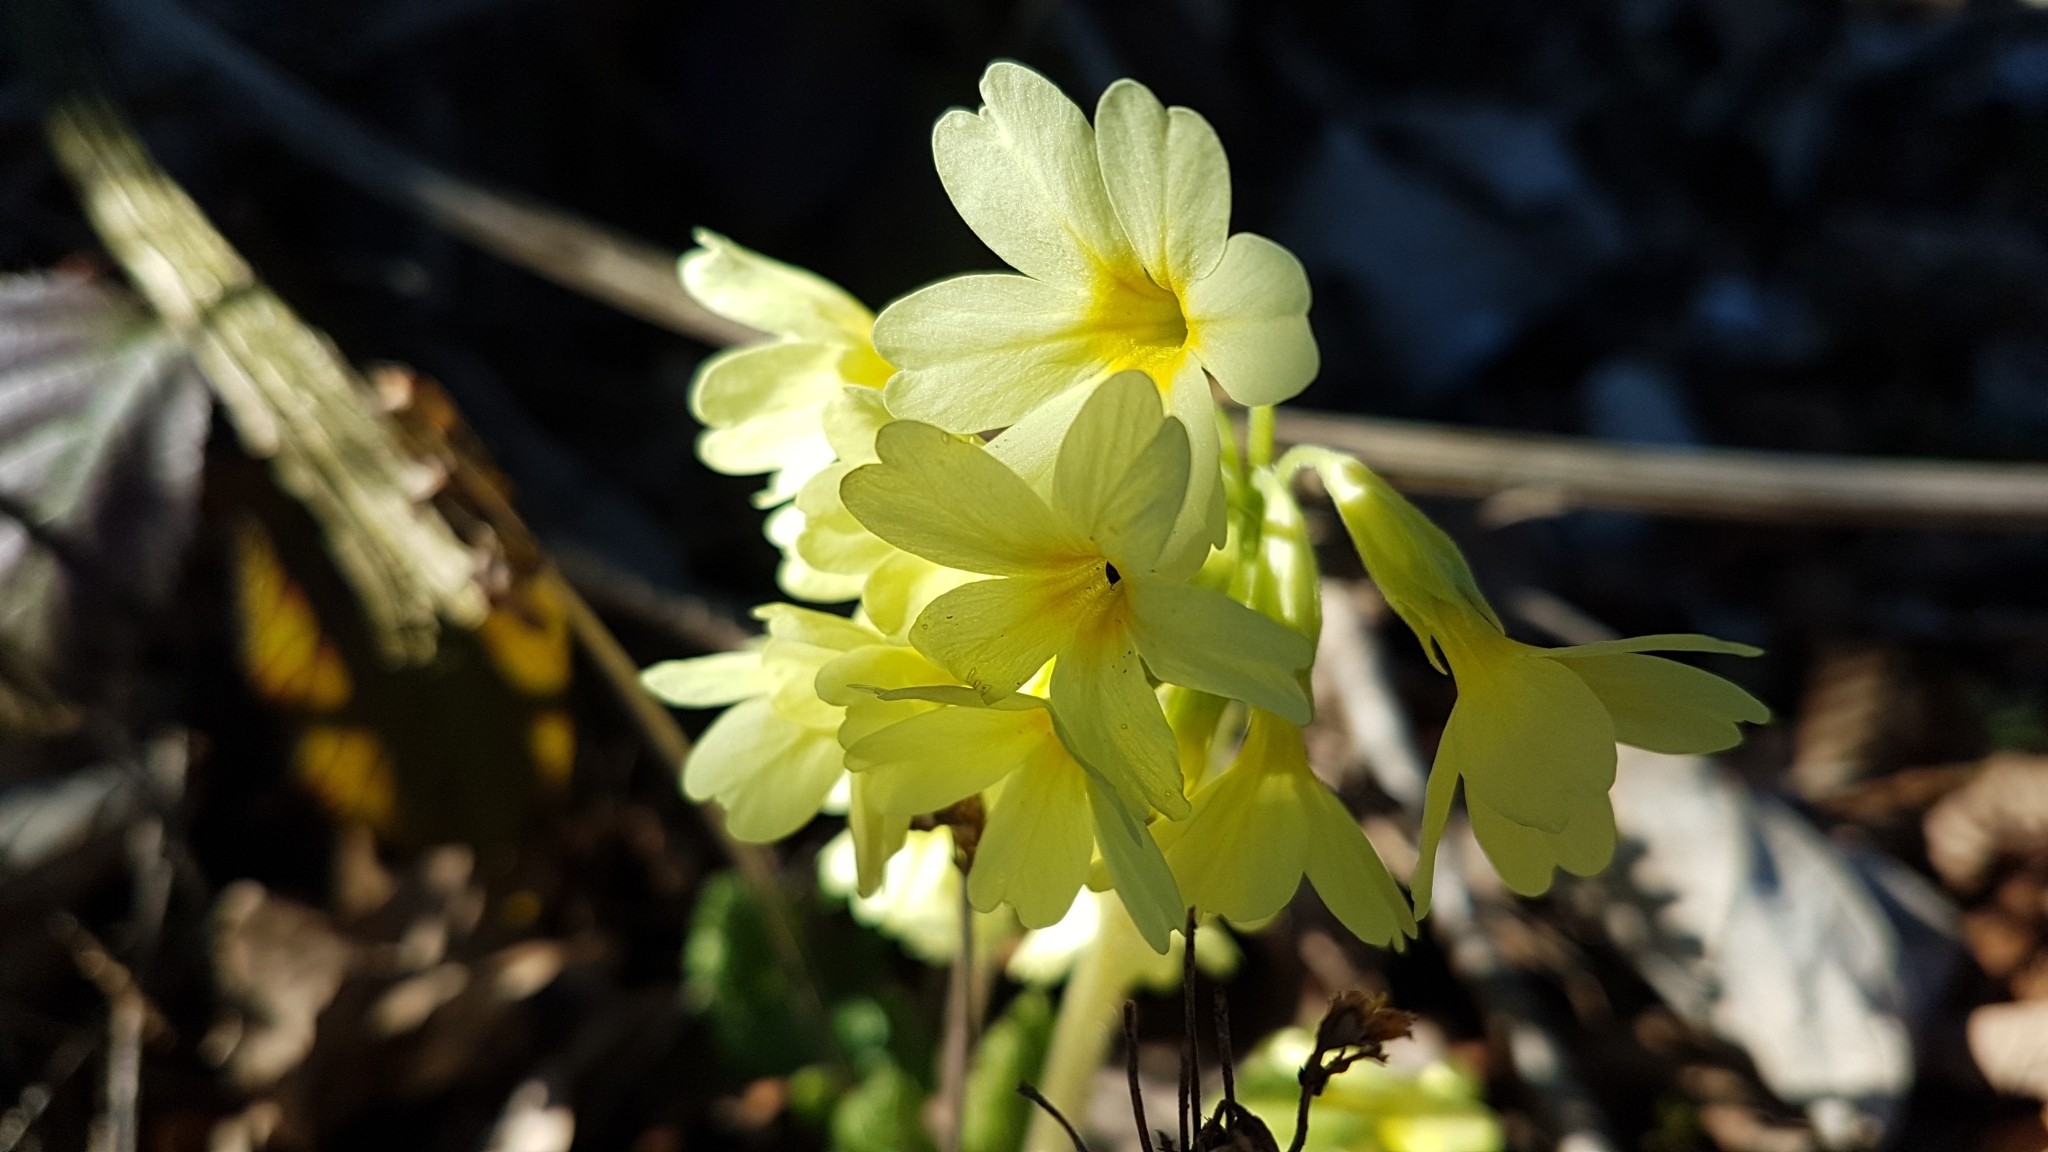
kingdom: Plantae
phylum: Tracheophyta
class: Magnoliopsida
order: Ericales
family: Primulaceae
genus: Primula
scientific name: Primula elatior
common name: Oxlip
